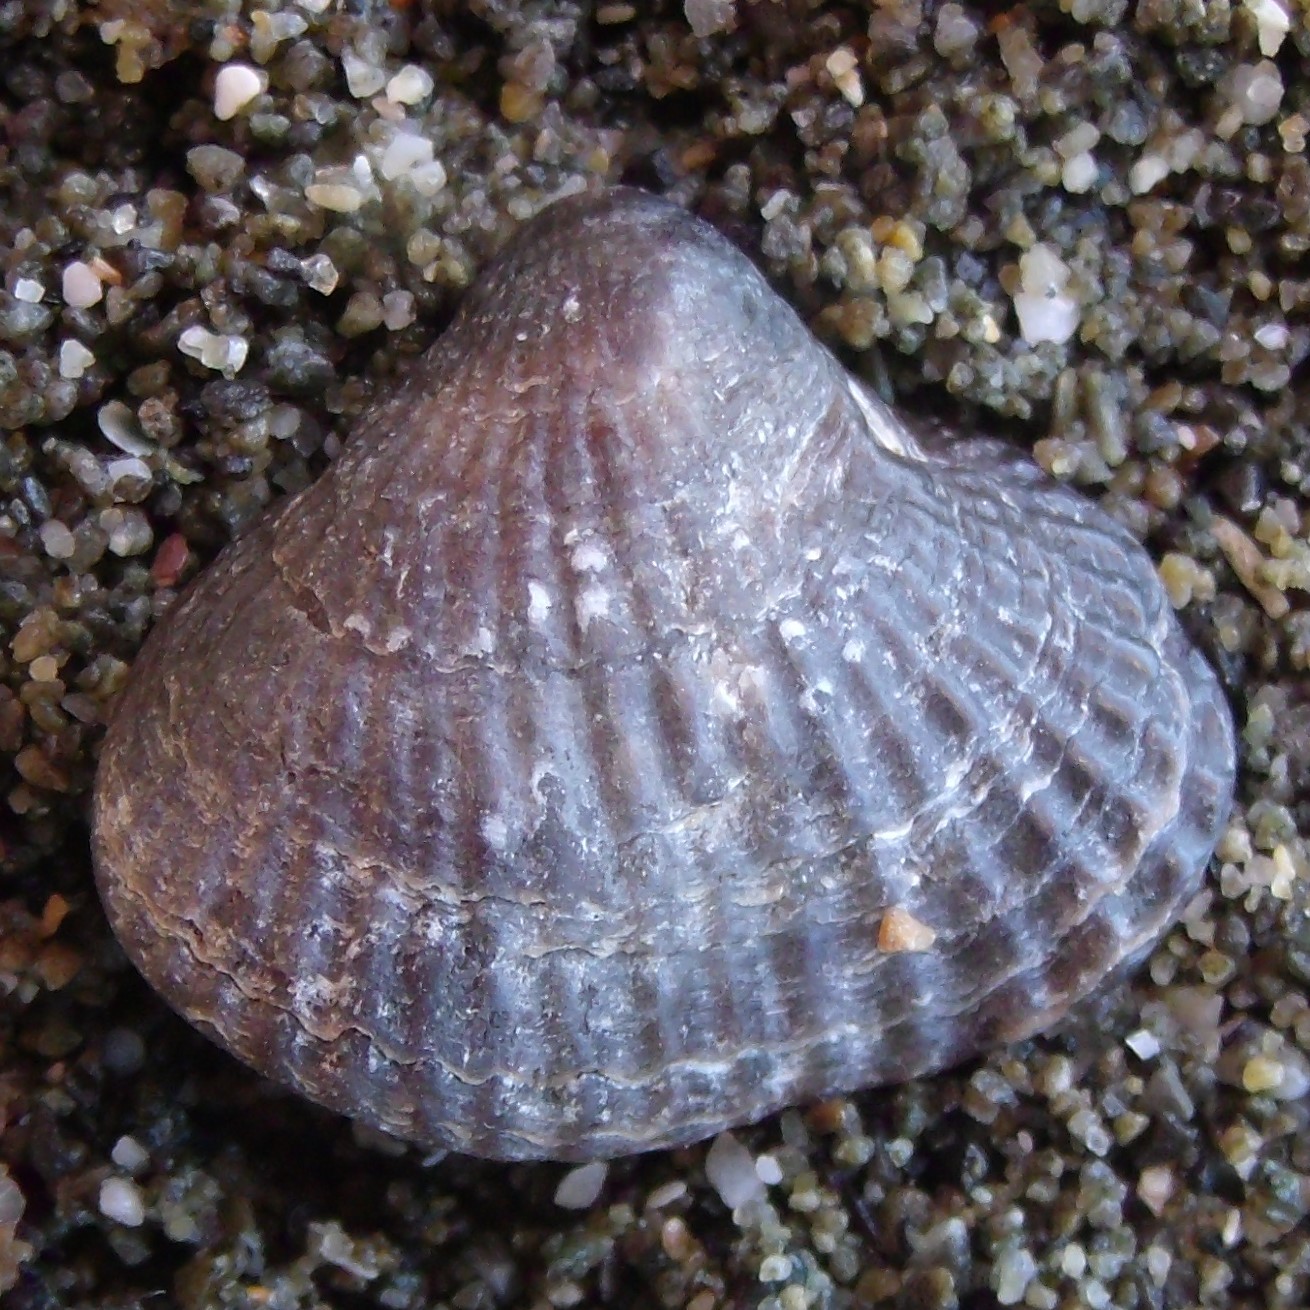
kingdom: Animalia
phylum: Brachiopoda
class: Rhynchonellata
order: Rhynchonellida
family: Notosariidae
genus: Notosaria
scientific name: Notosaria nigricans
